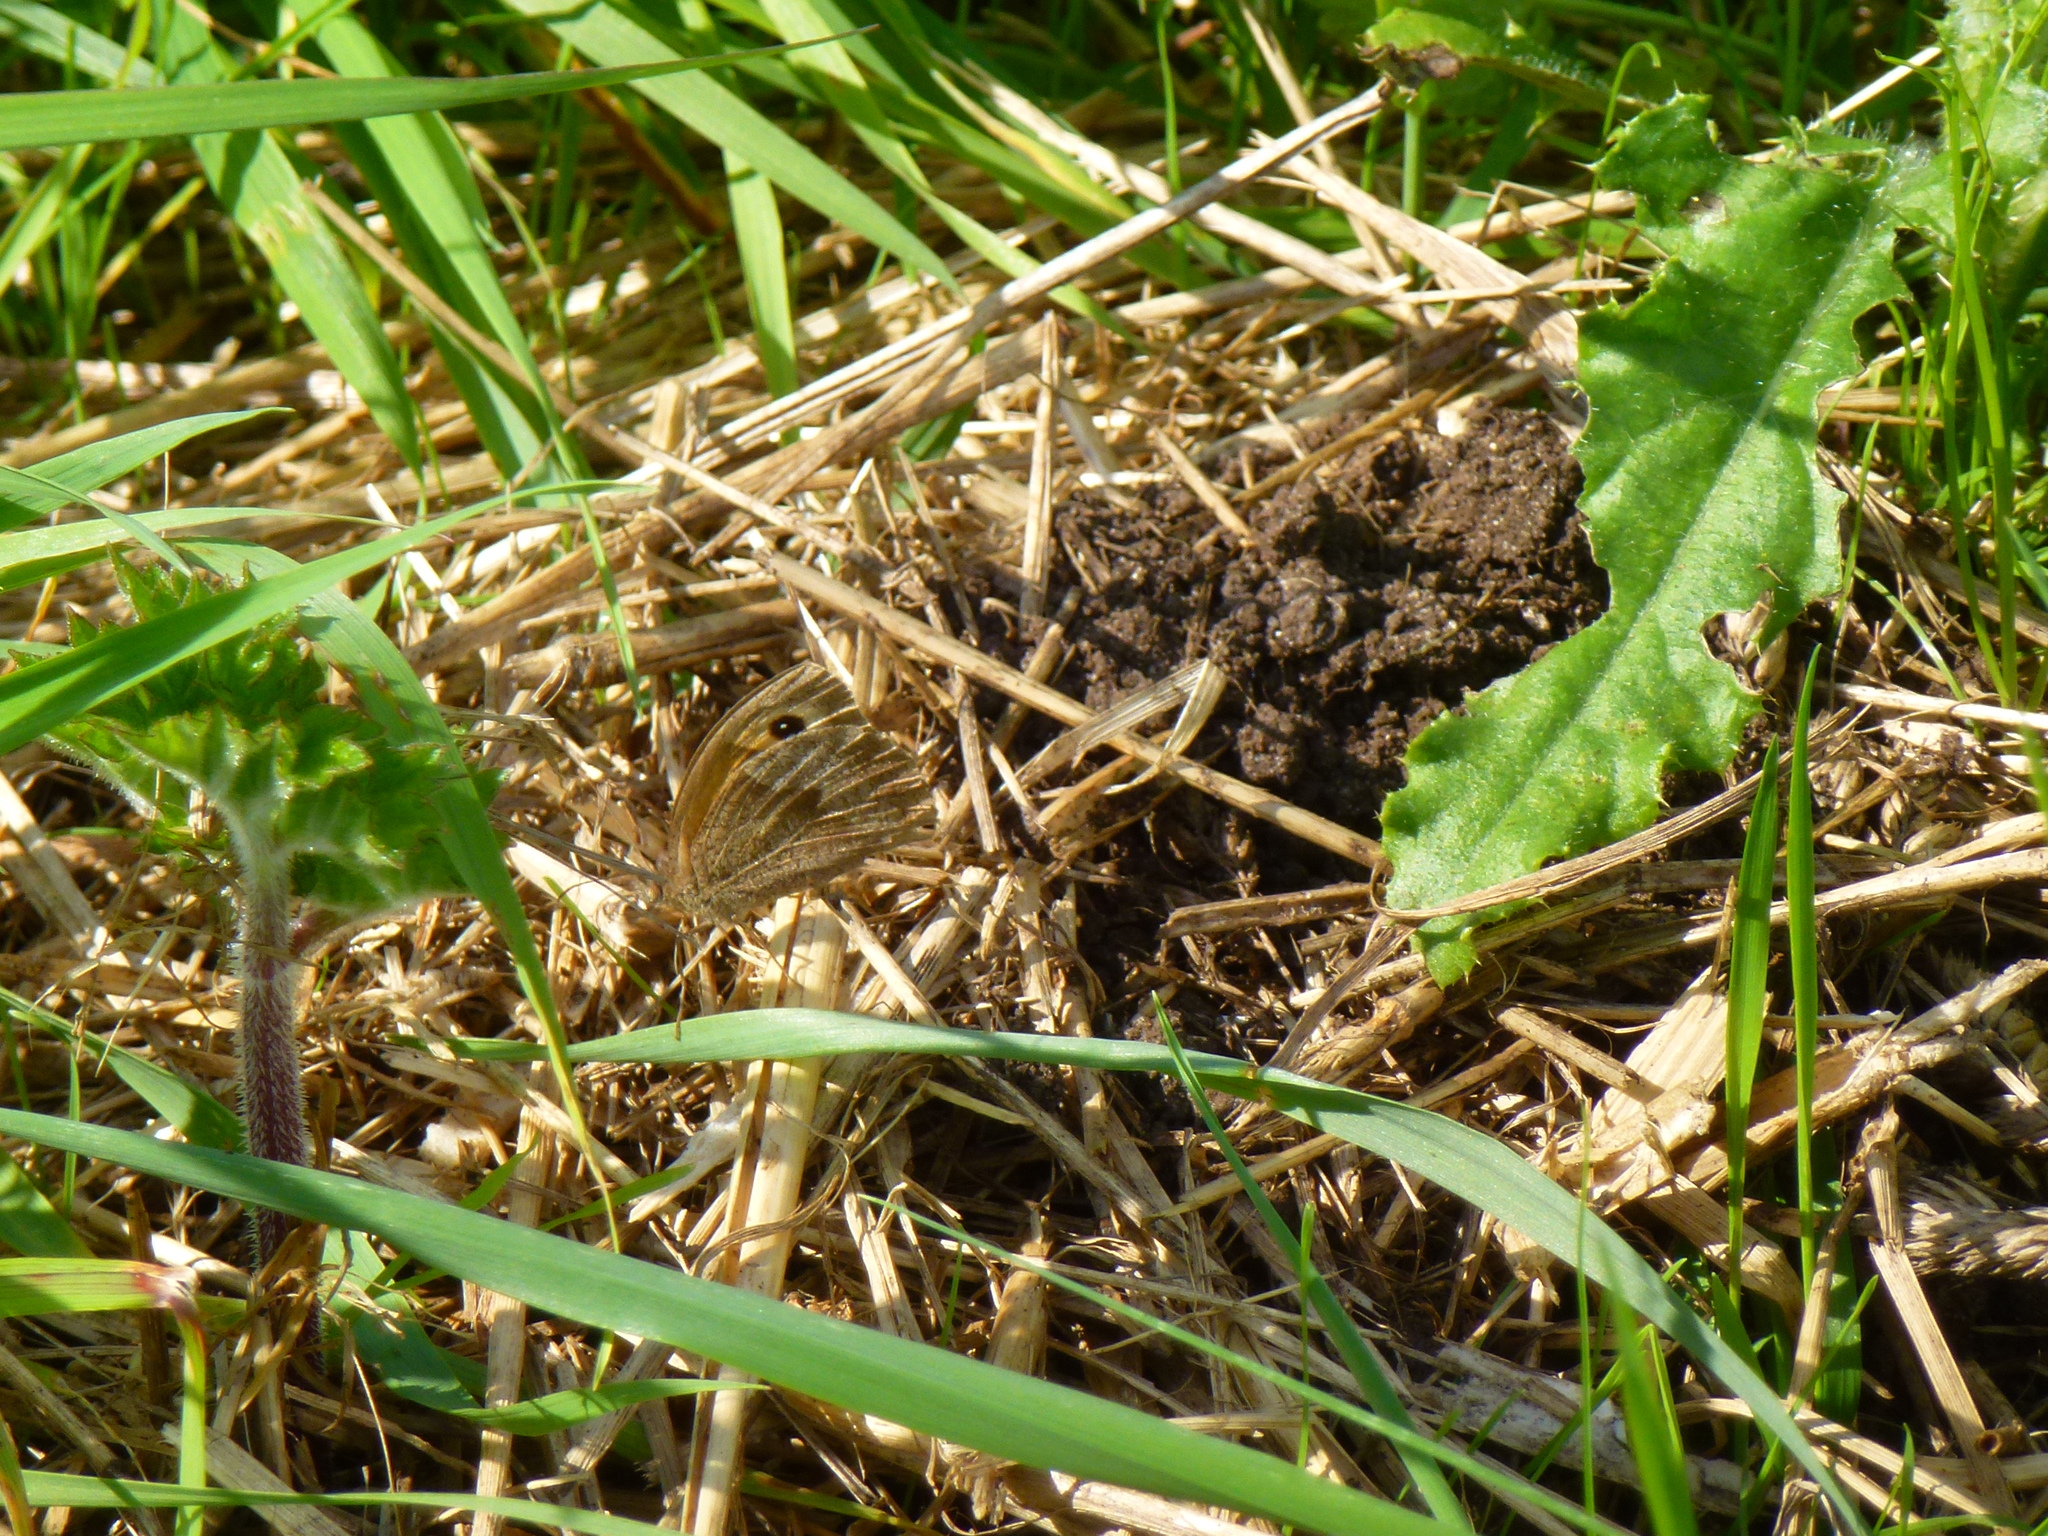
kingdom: Animalia
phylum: Arthropoda
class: Insecta
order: Lepidoptera
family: Nymphalidae
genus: Maniola
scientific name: Maniola jurtina
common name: Meadow brown
